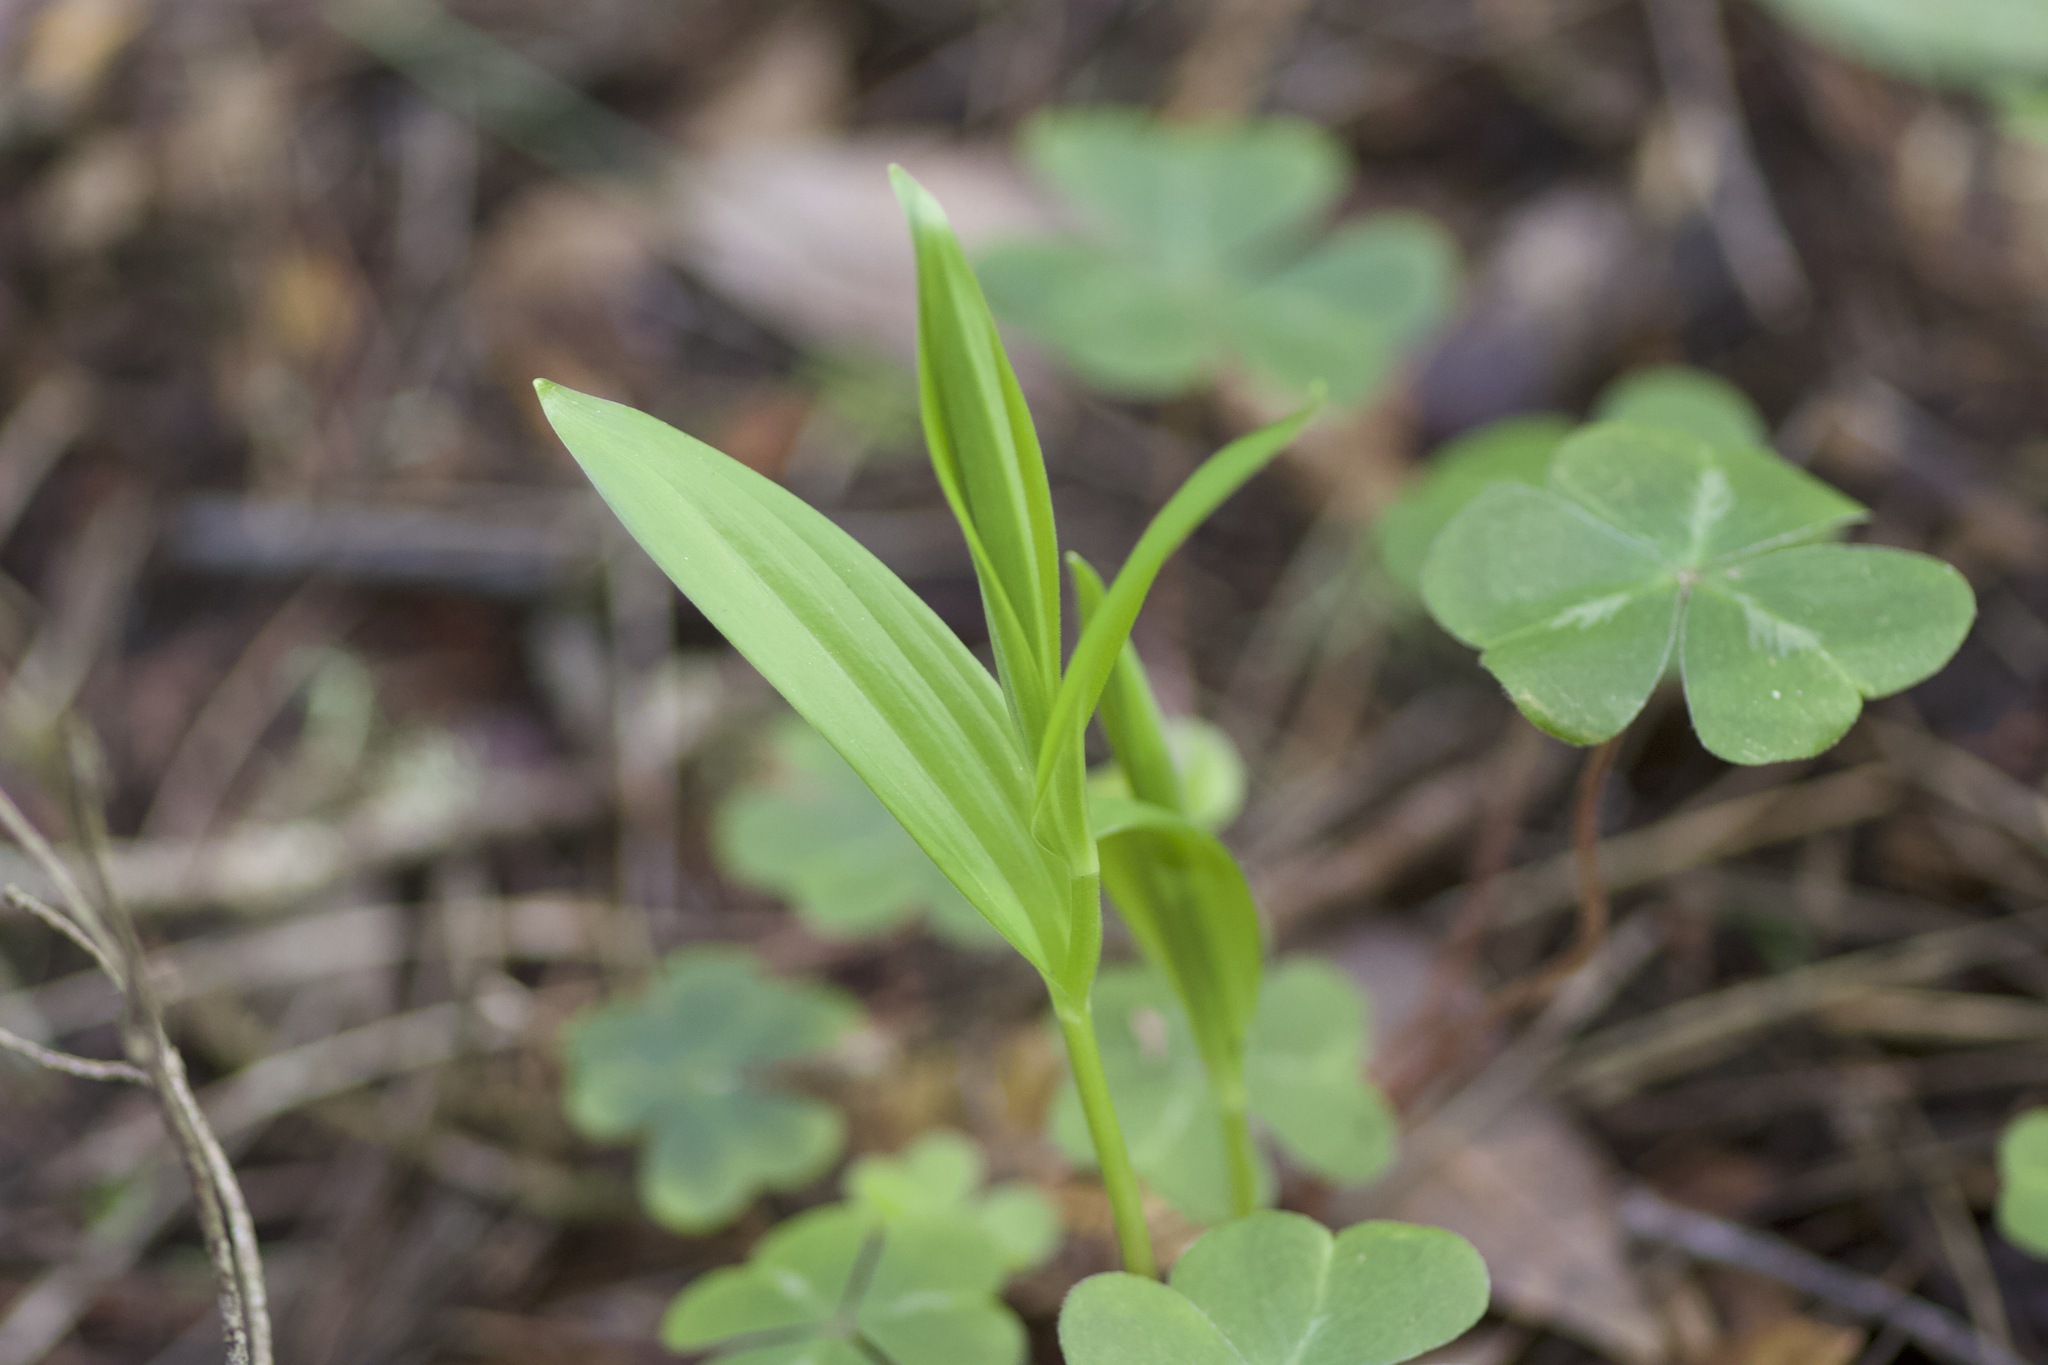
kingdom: Plantae
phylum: Tracheophyta
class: Liliopsida
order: Asparagales
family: Asparagaceae
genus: Maianthemum
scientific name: Maianthemum stellatum
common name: Little false solomon's seal
